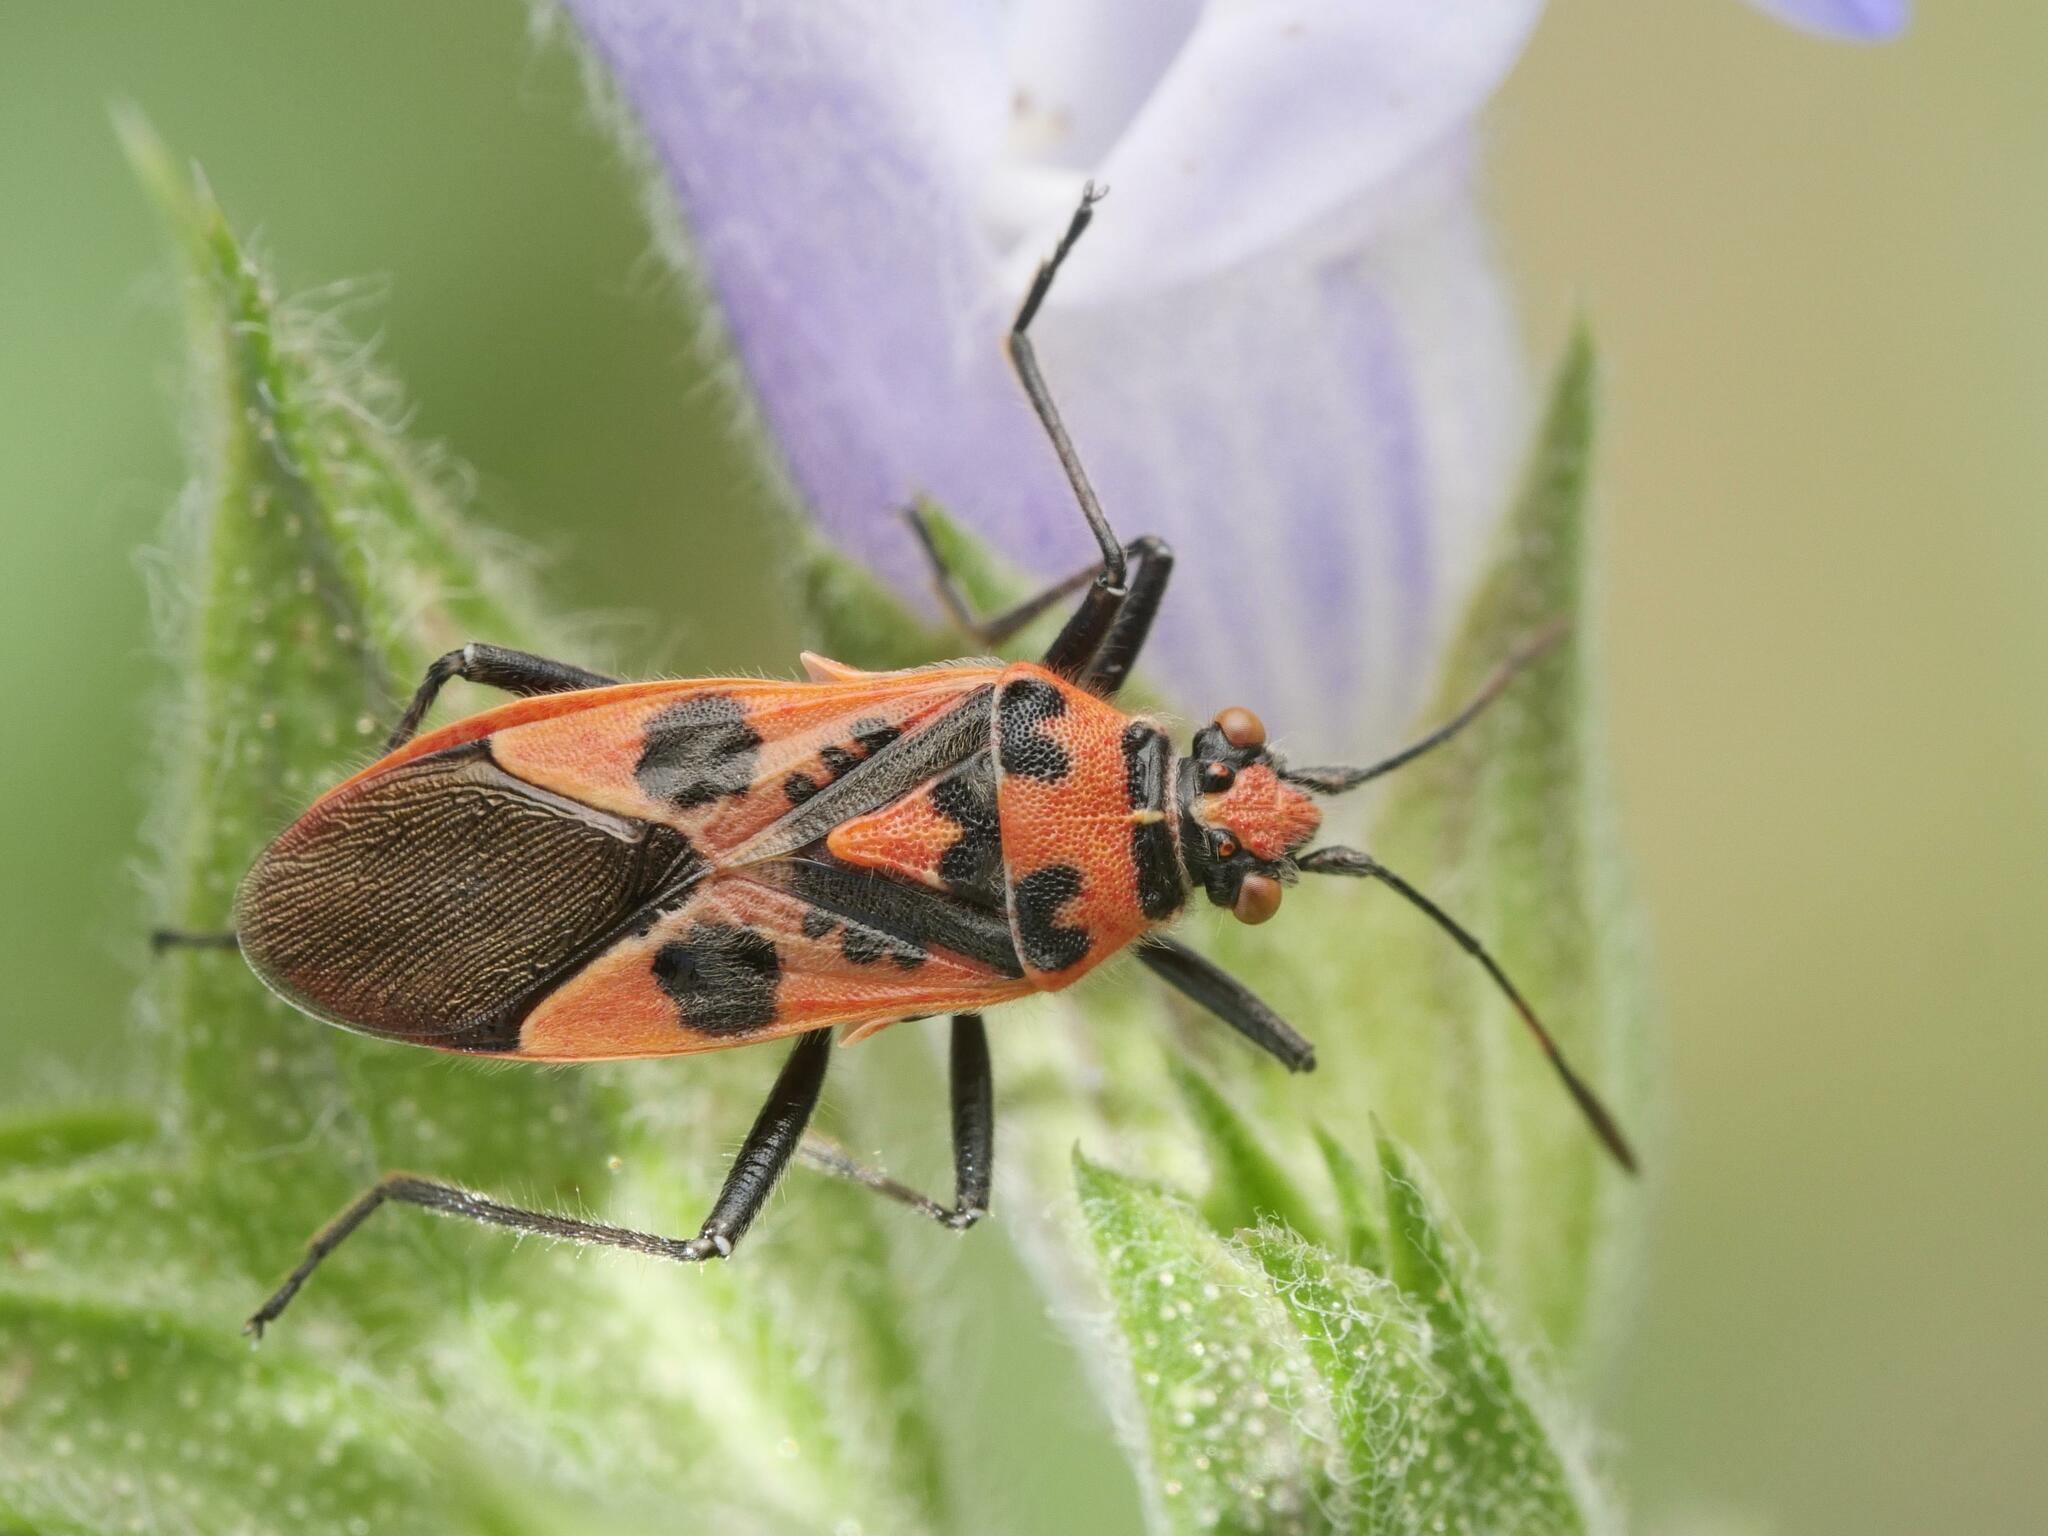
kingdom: Animalia
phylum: Arthropoda
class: Insecta
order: Hemiptera
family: Rhopalidae
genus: Corizus
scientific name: Corizus hyoscyami
